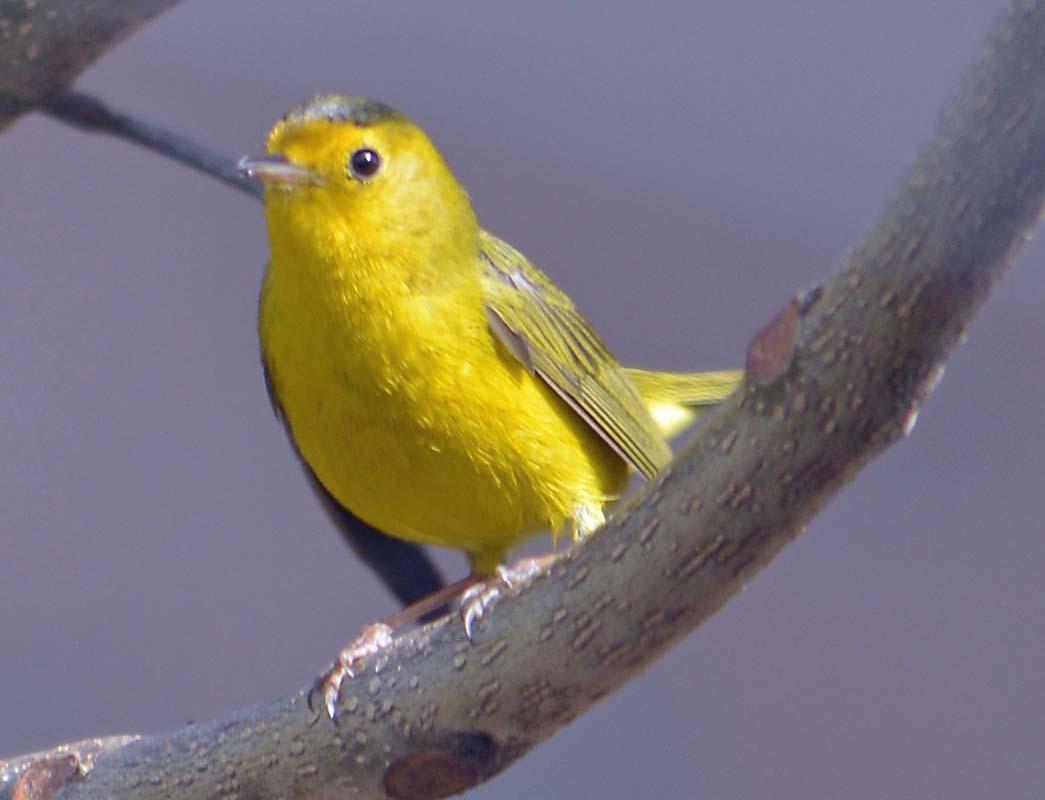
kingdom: Animalia
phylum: Chordata
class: Aves
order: Passeriformes
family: Parulidae
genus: Cardellina
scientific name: Cardellina pusilla
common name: Wilson's warbler
